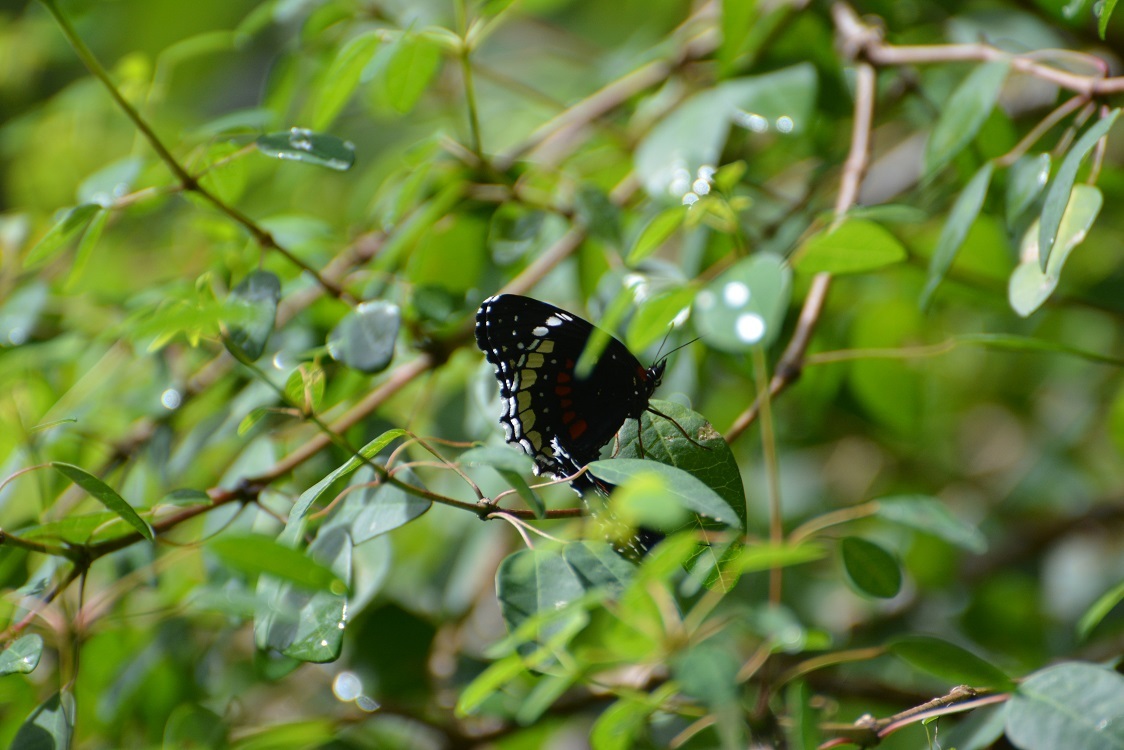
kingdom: Animalia
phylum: Arthropoda
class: Insecta
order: Lepidoptera
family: Nymphalidae
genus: Chlosyne
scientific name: Chlosyne hippodrome
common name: Simple patch
